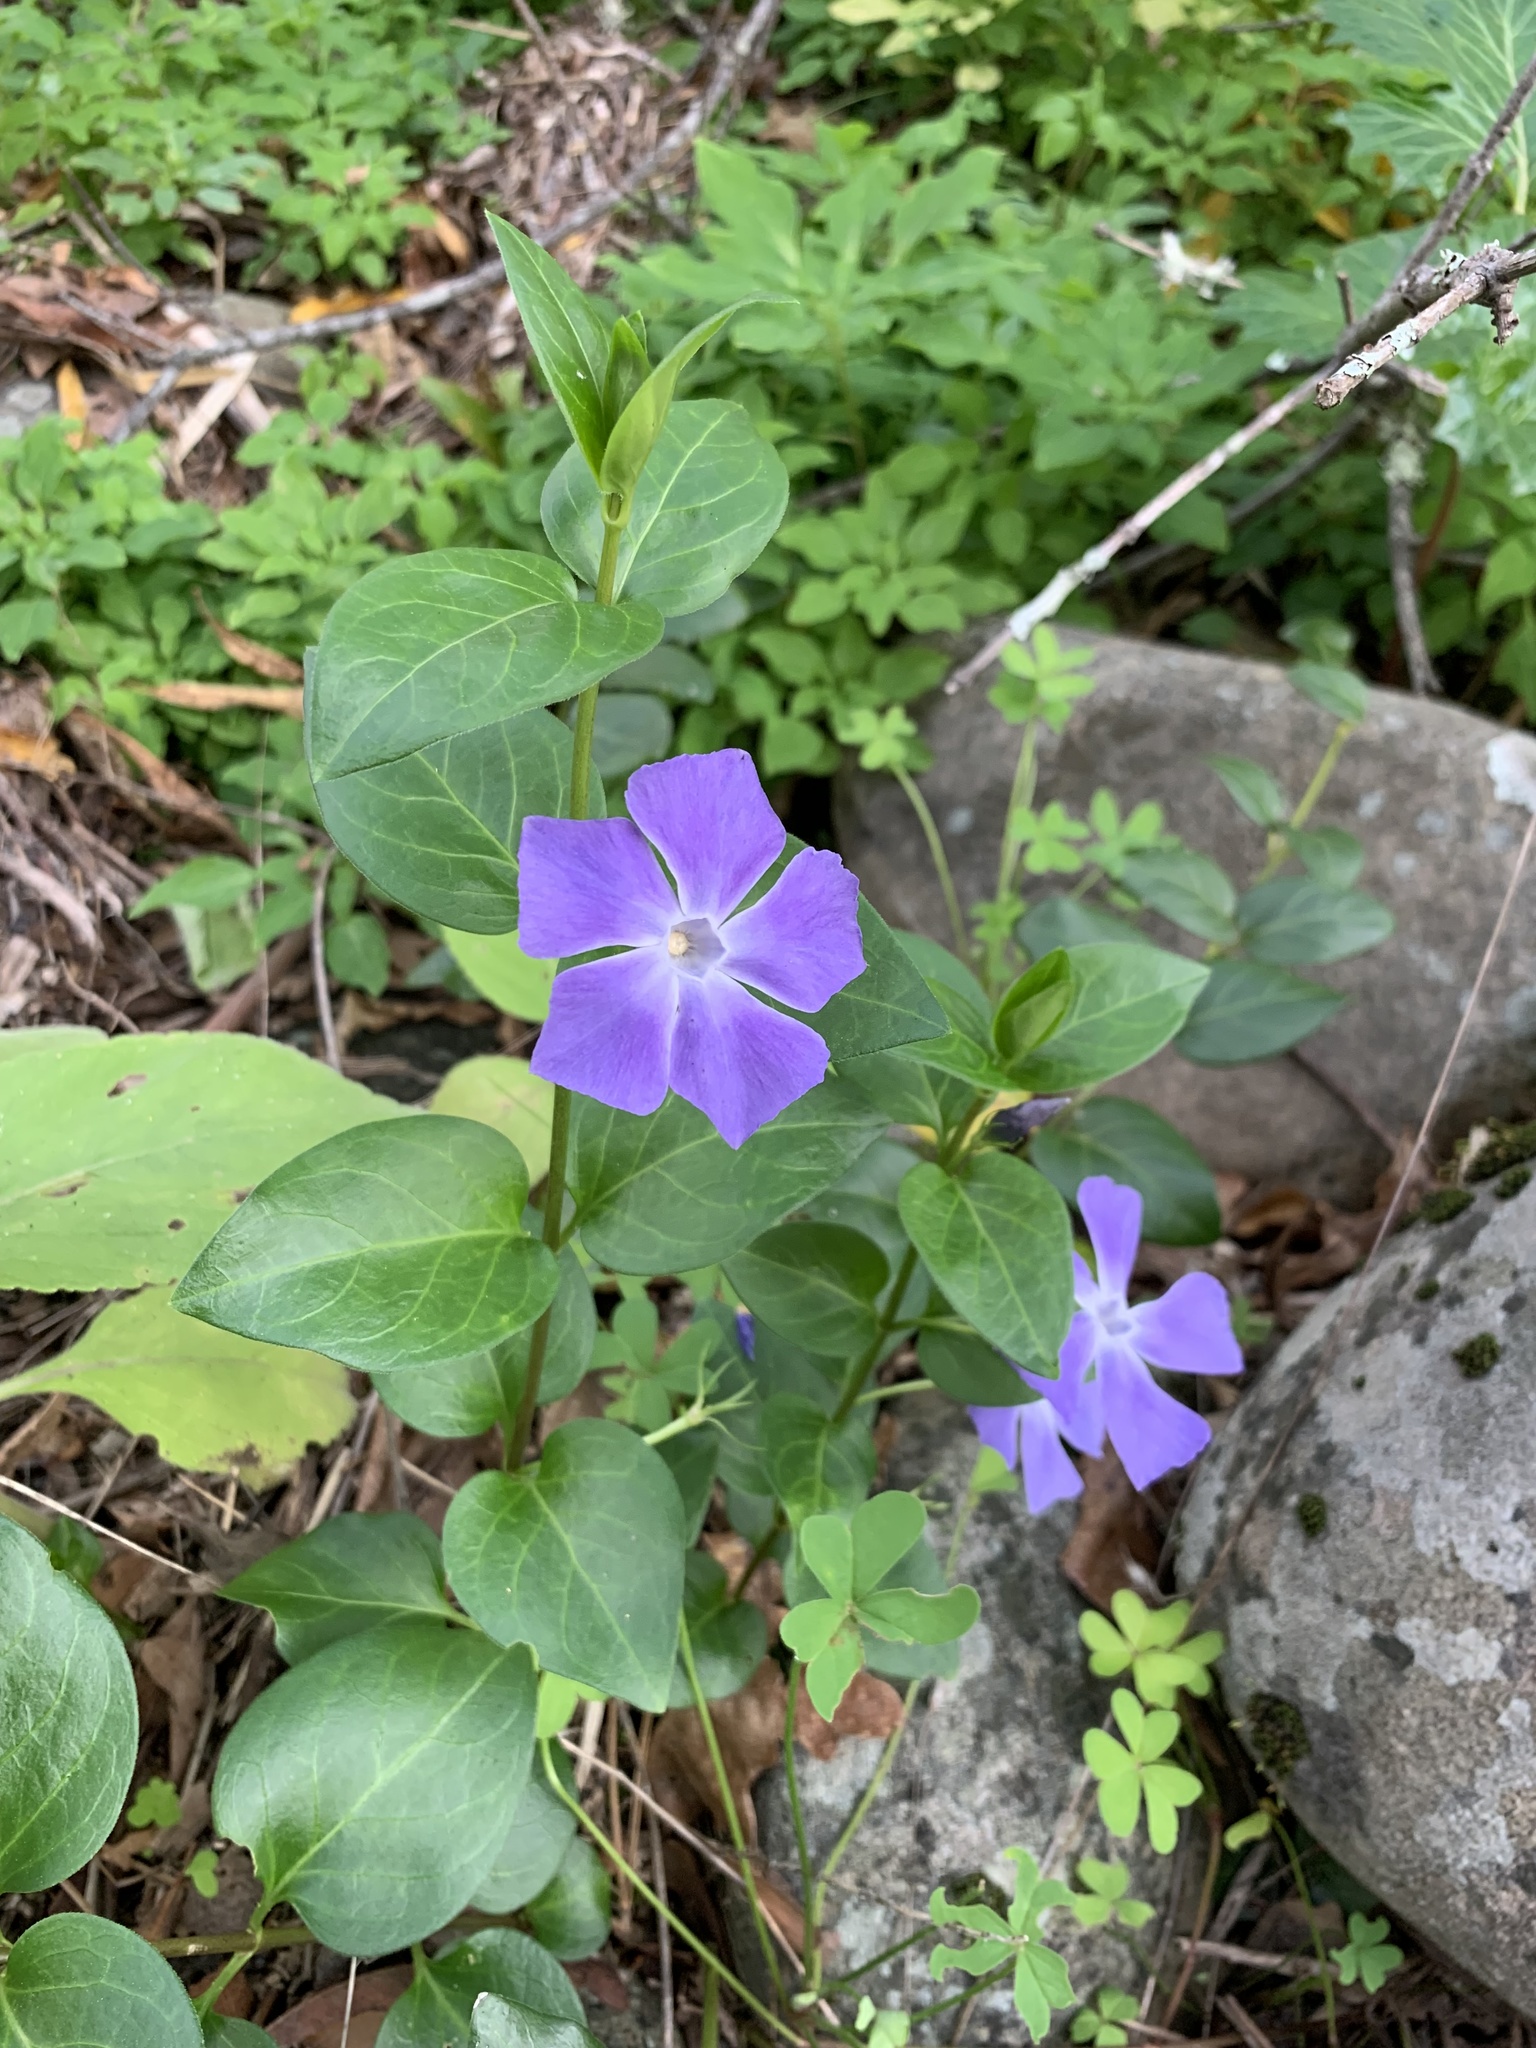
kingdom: Plantae
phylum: Tracheophyta
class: Magnoliopsida
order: Gentianales
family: Apocynaceae
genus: Vinca
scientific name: Vinca major
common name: Greater periwinkle
